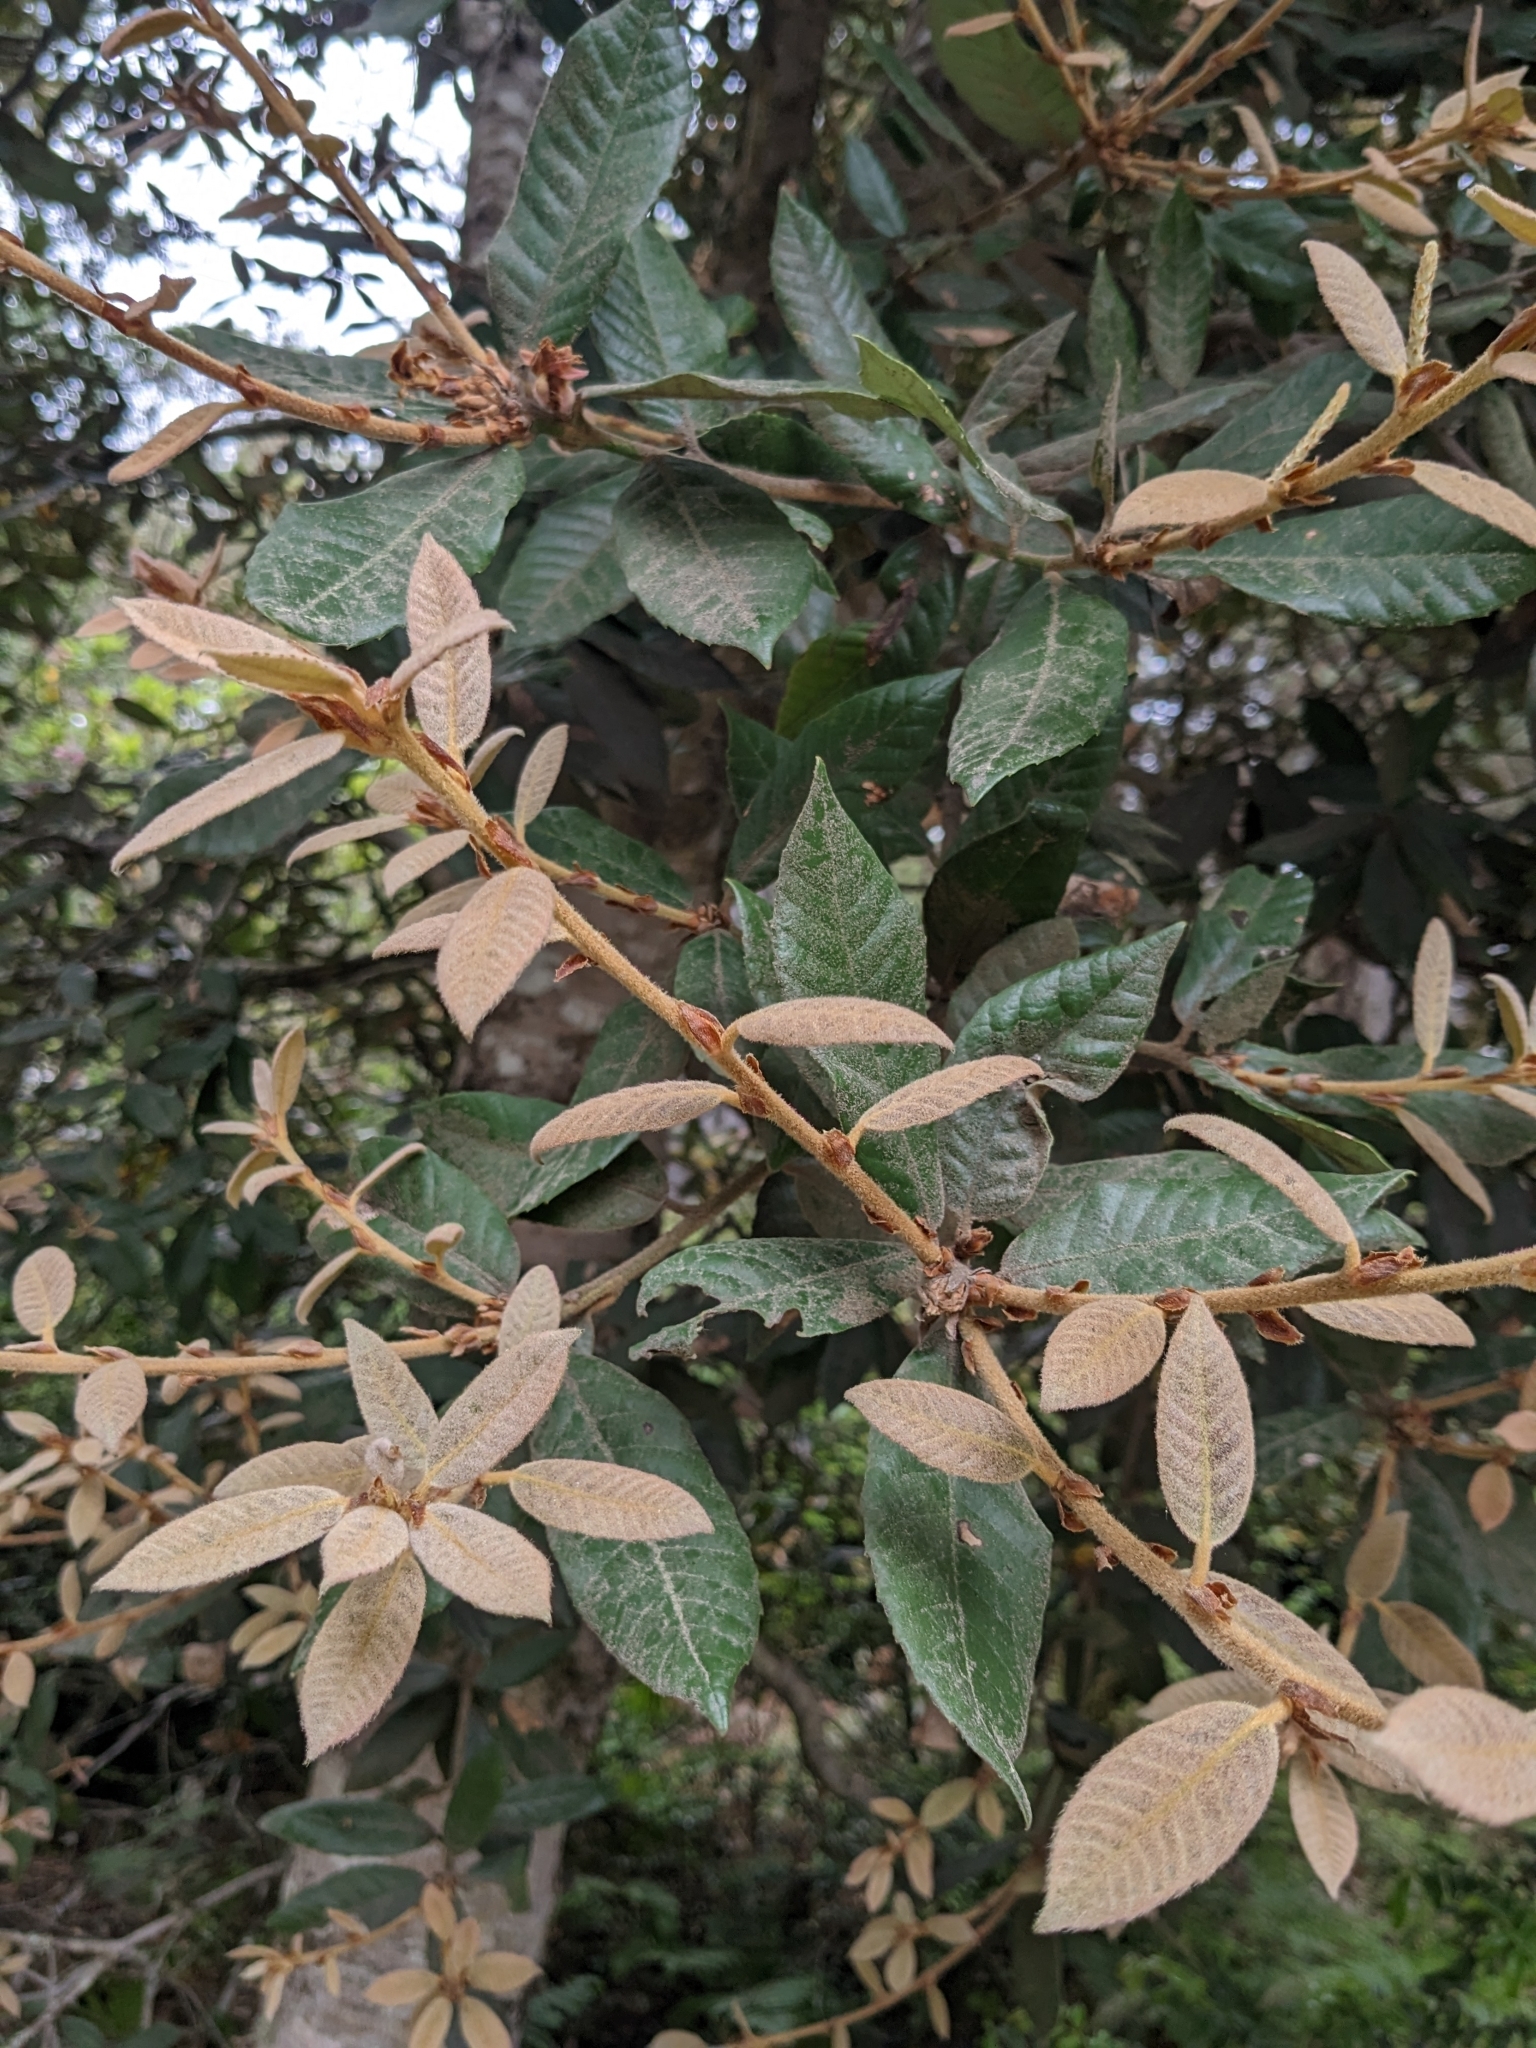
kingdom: Plantae
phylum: Tracheophyta
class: Magnoliopsida
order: Fagales
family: Fagaceae
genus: Notholithocarpus
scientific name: Notholithocarpus densiflorus
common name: Tan bark oak
